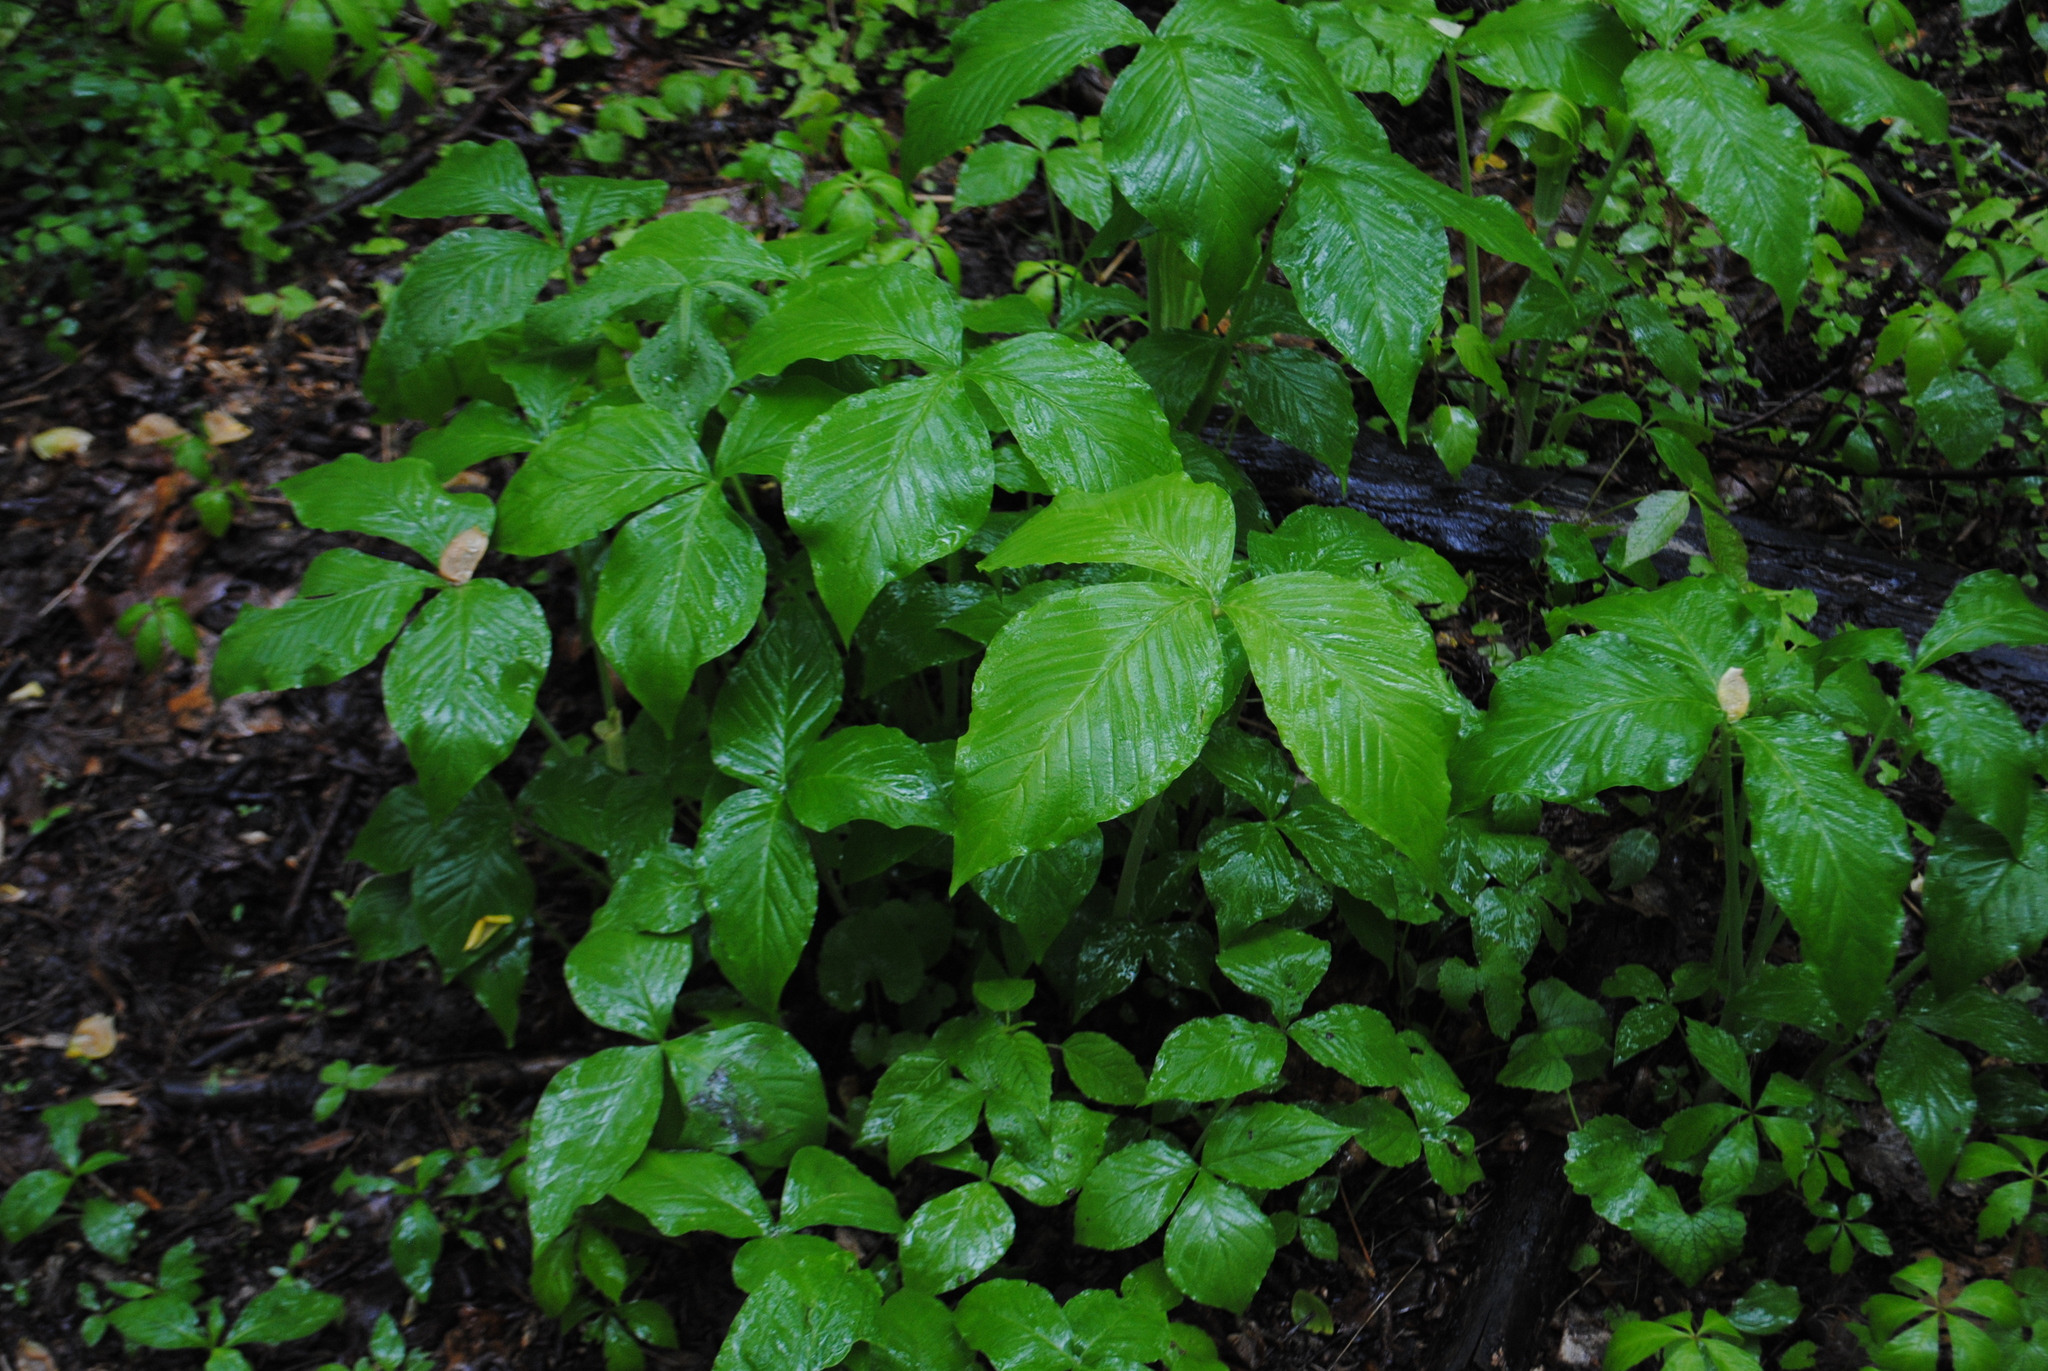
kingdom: Plantae
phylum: Tracheophyta
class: Liliopsida
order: Alismatales
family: Araceae
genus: Arisaema
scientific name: Arisaema triphyllum
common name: Jack-in-the-pulpit
